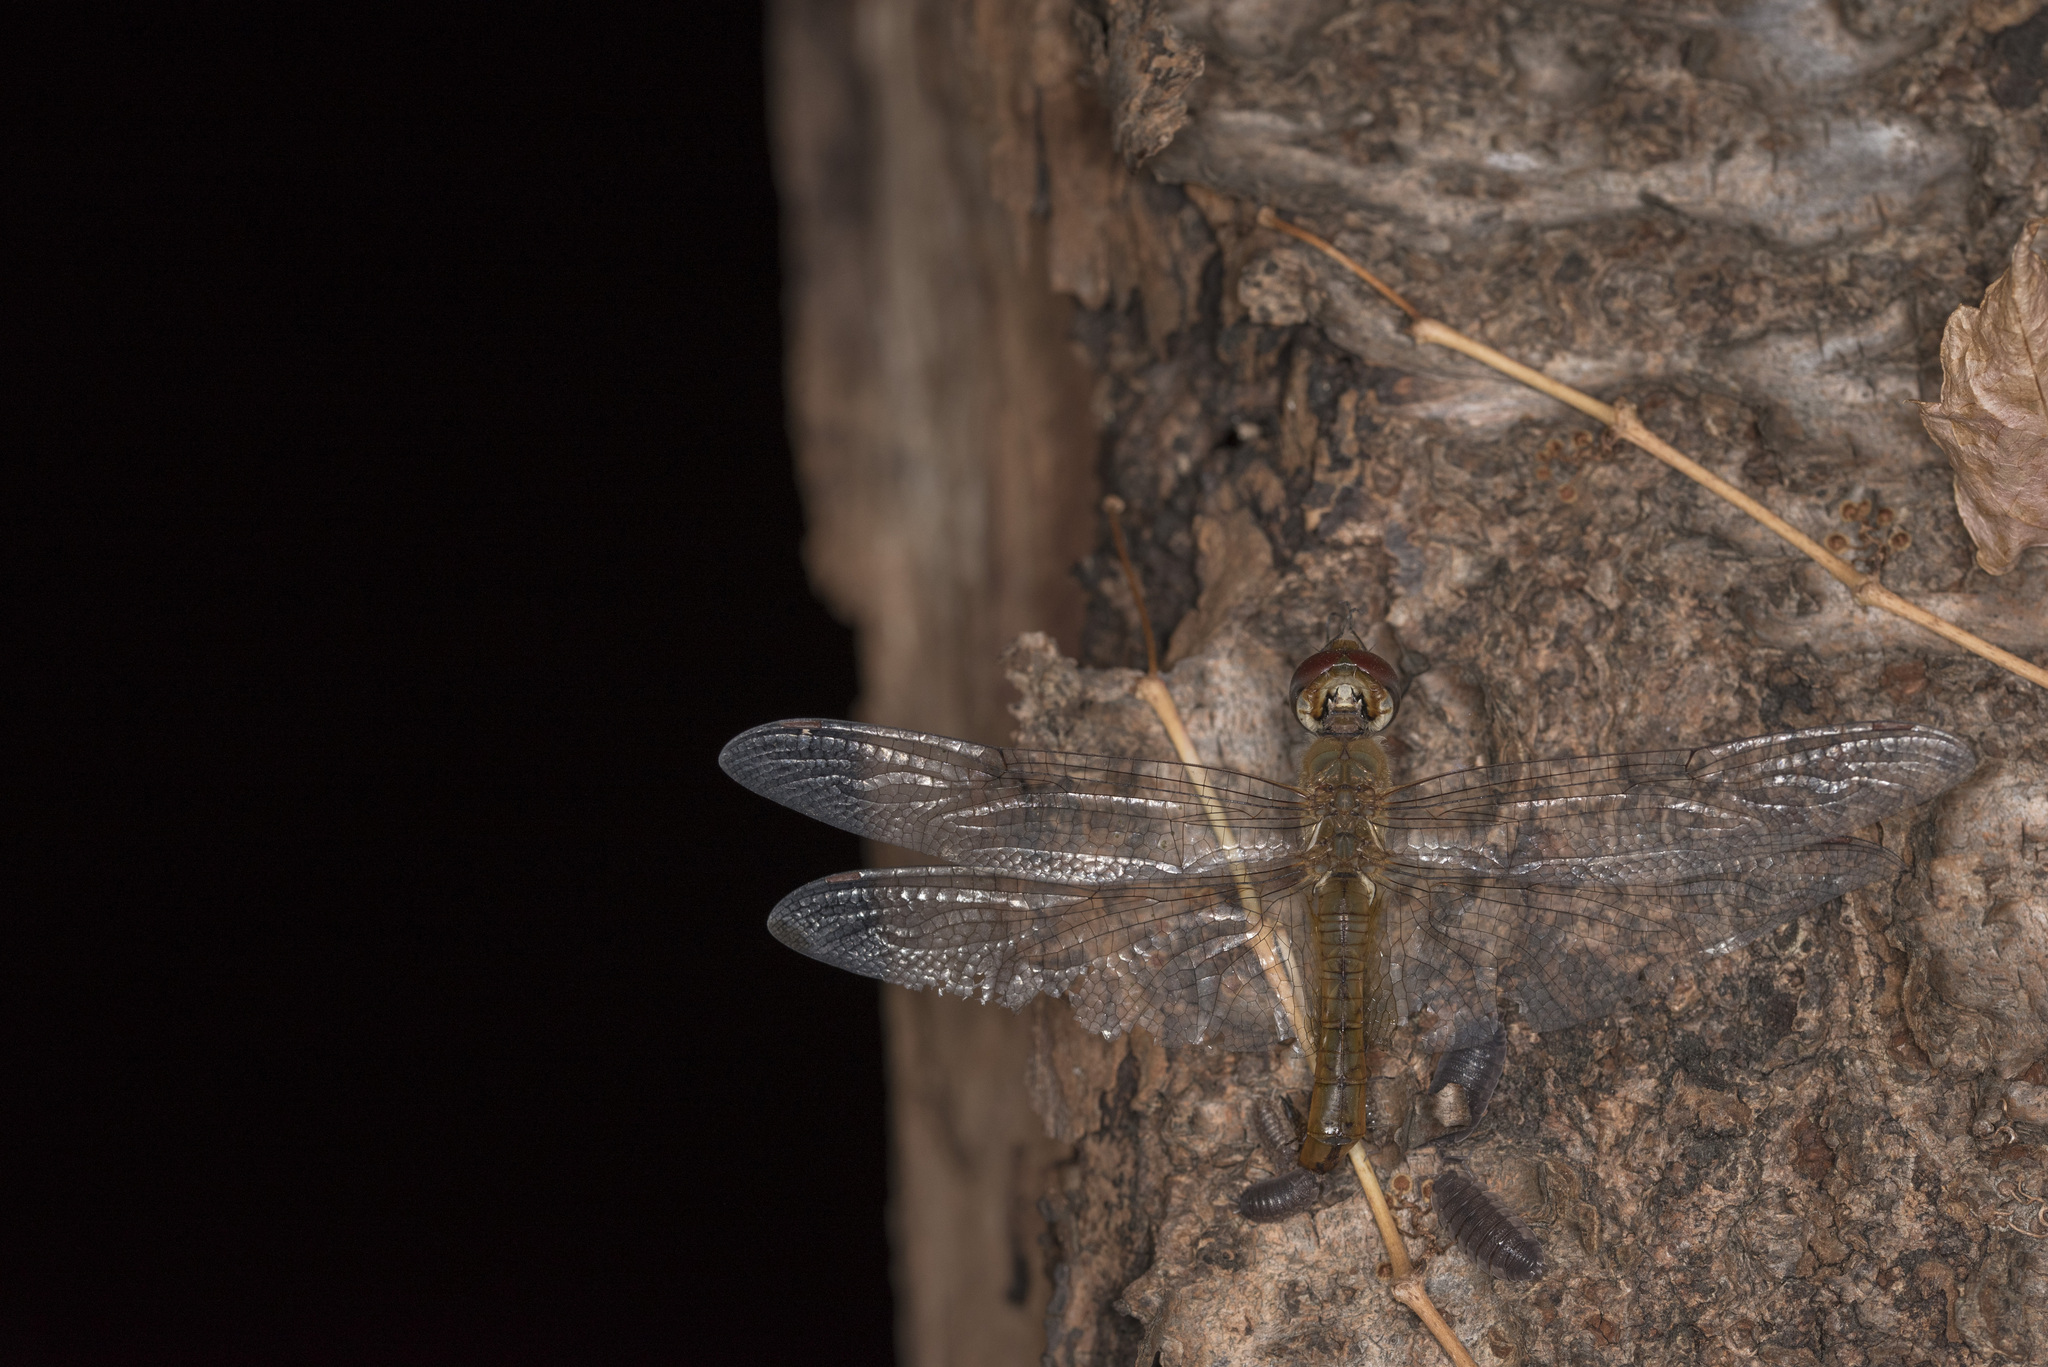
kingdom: Animalia
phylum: Arthropoda
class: Insecta
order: Odonata
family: Libellulidae
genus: Pantala
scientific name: Pantala flavescens
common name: Wandering glider
